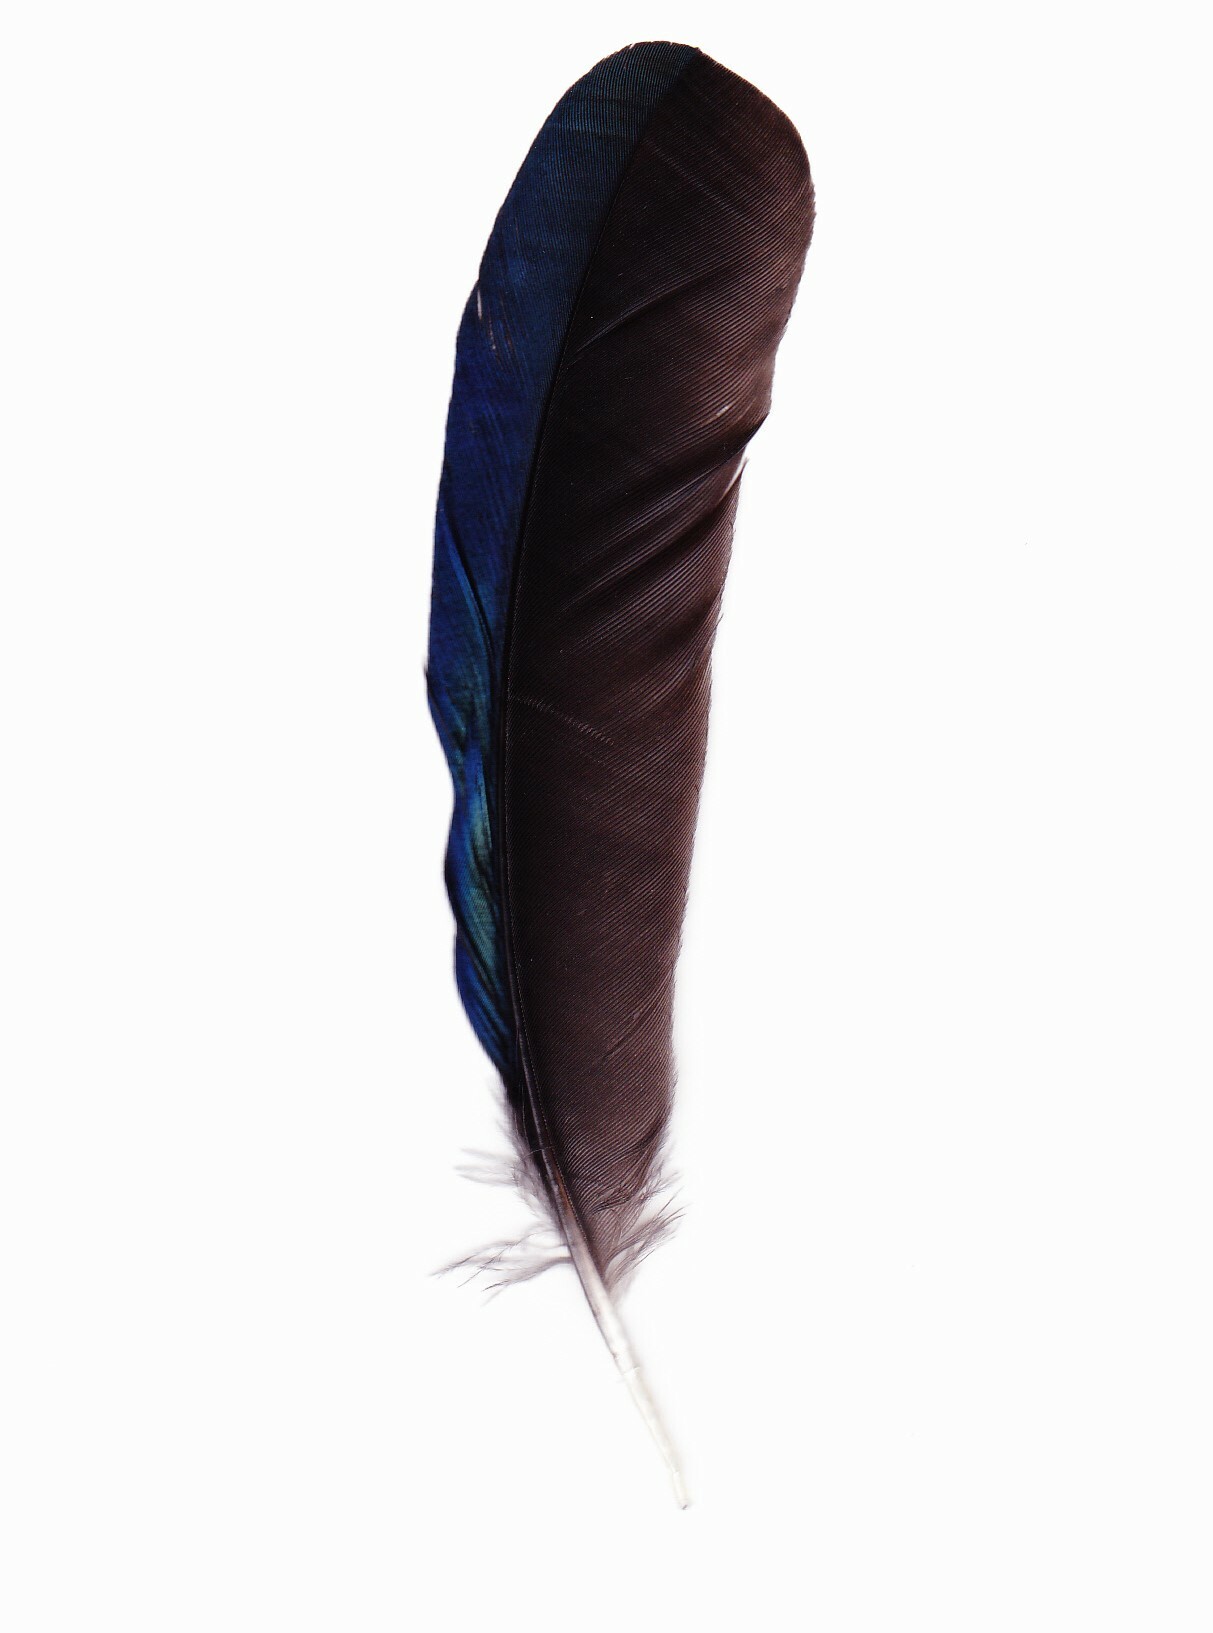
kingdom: Animalia
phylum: Chordata
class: Aves
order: Passeriformes
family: Corvidae
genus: Pica
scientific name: Pica pica
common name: Eurasian magpie
